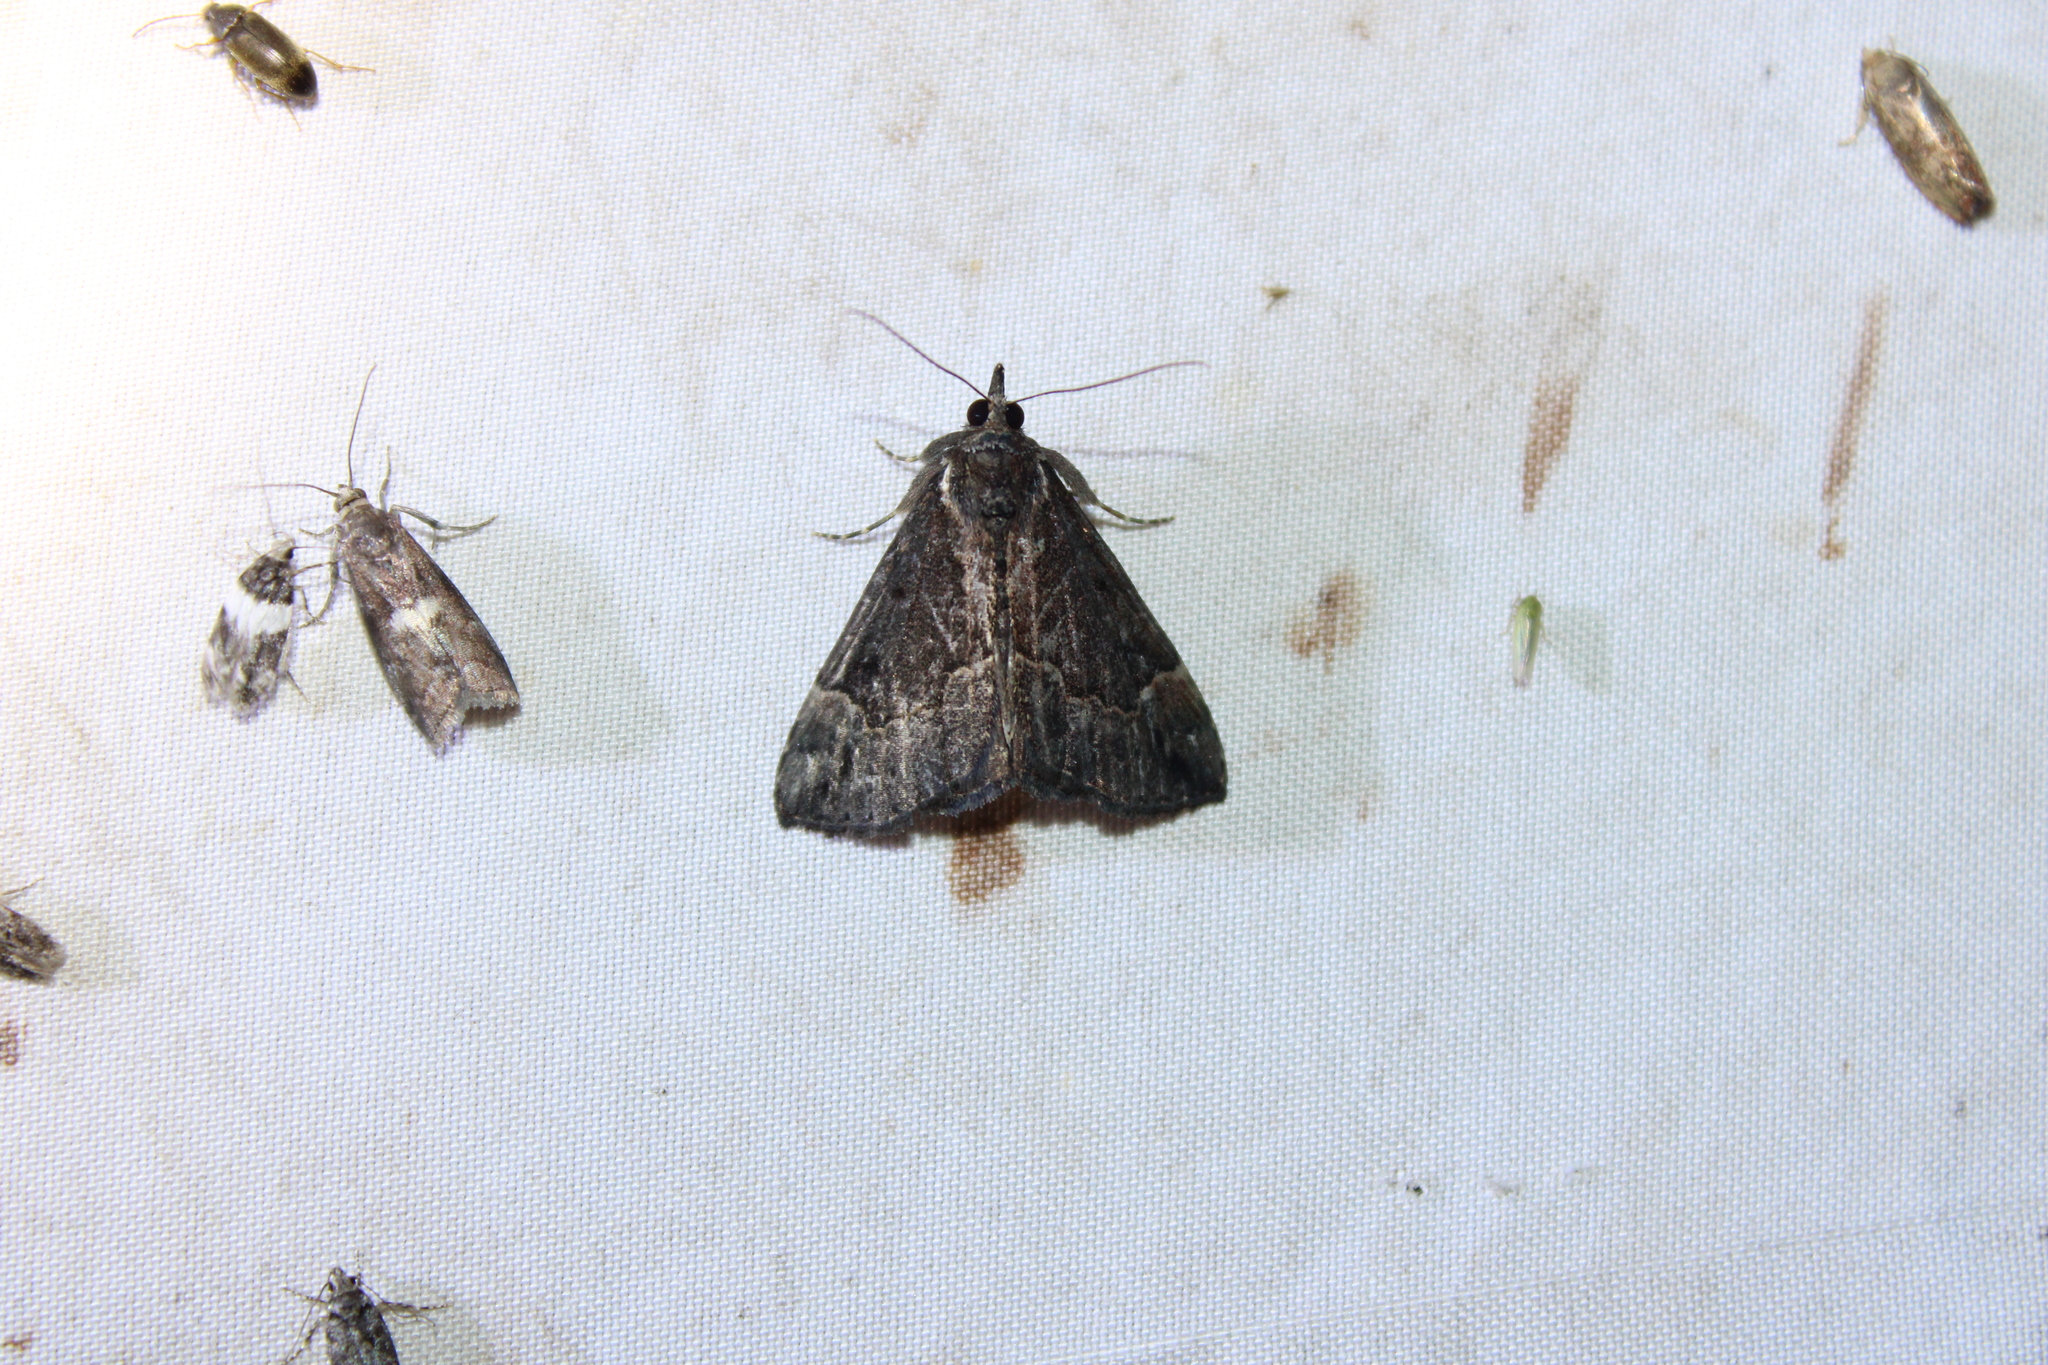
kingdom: Animalia
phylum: Arthropoda
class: Insecta
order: Lepidoptera
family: Erebidae
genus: Hypena
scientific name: Hypena baltimoralis
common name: Baltimore snout
